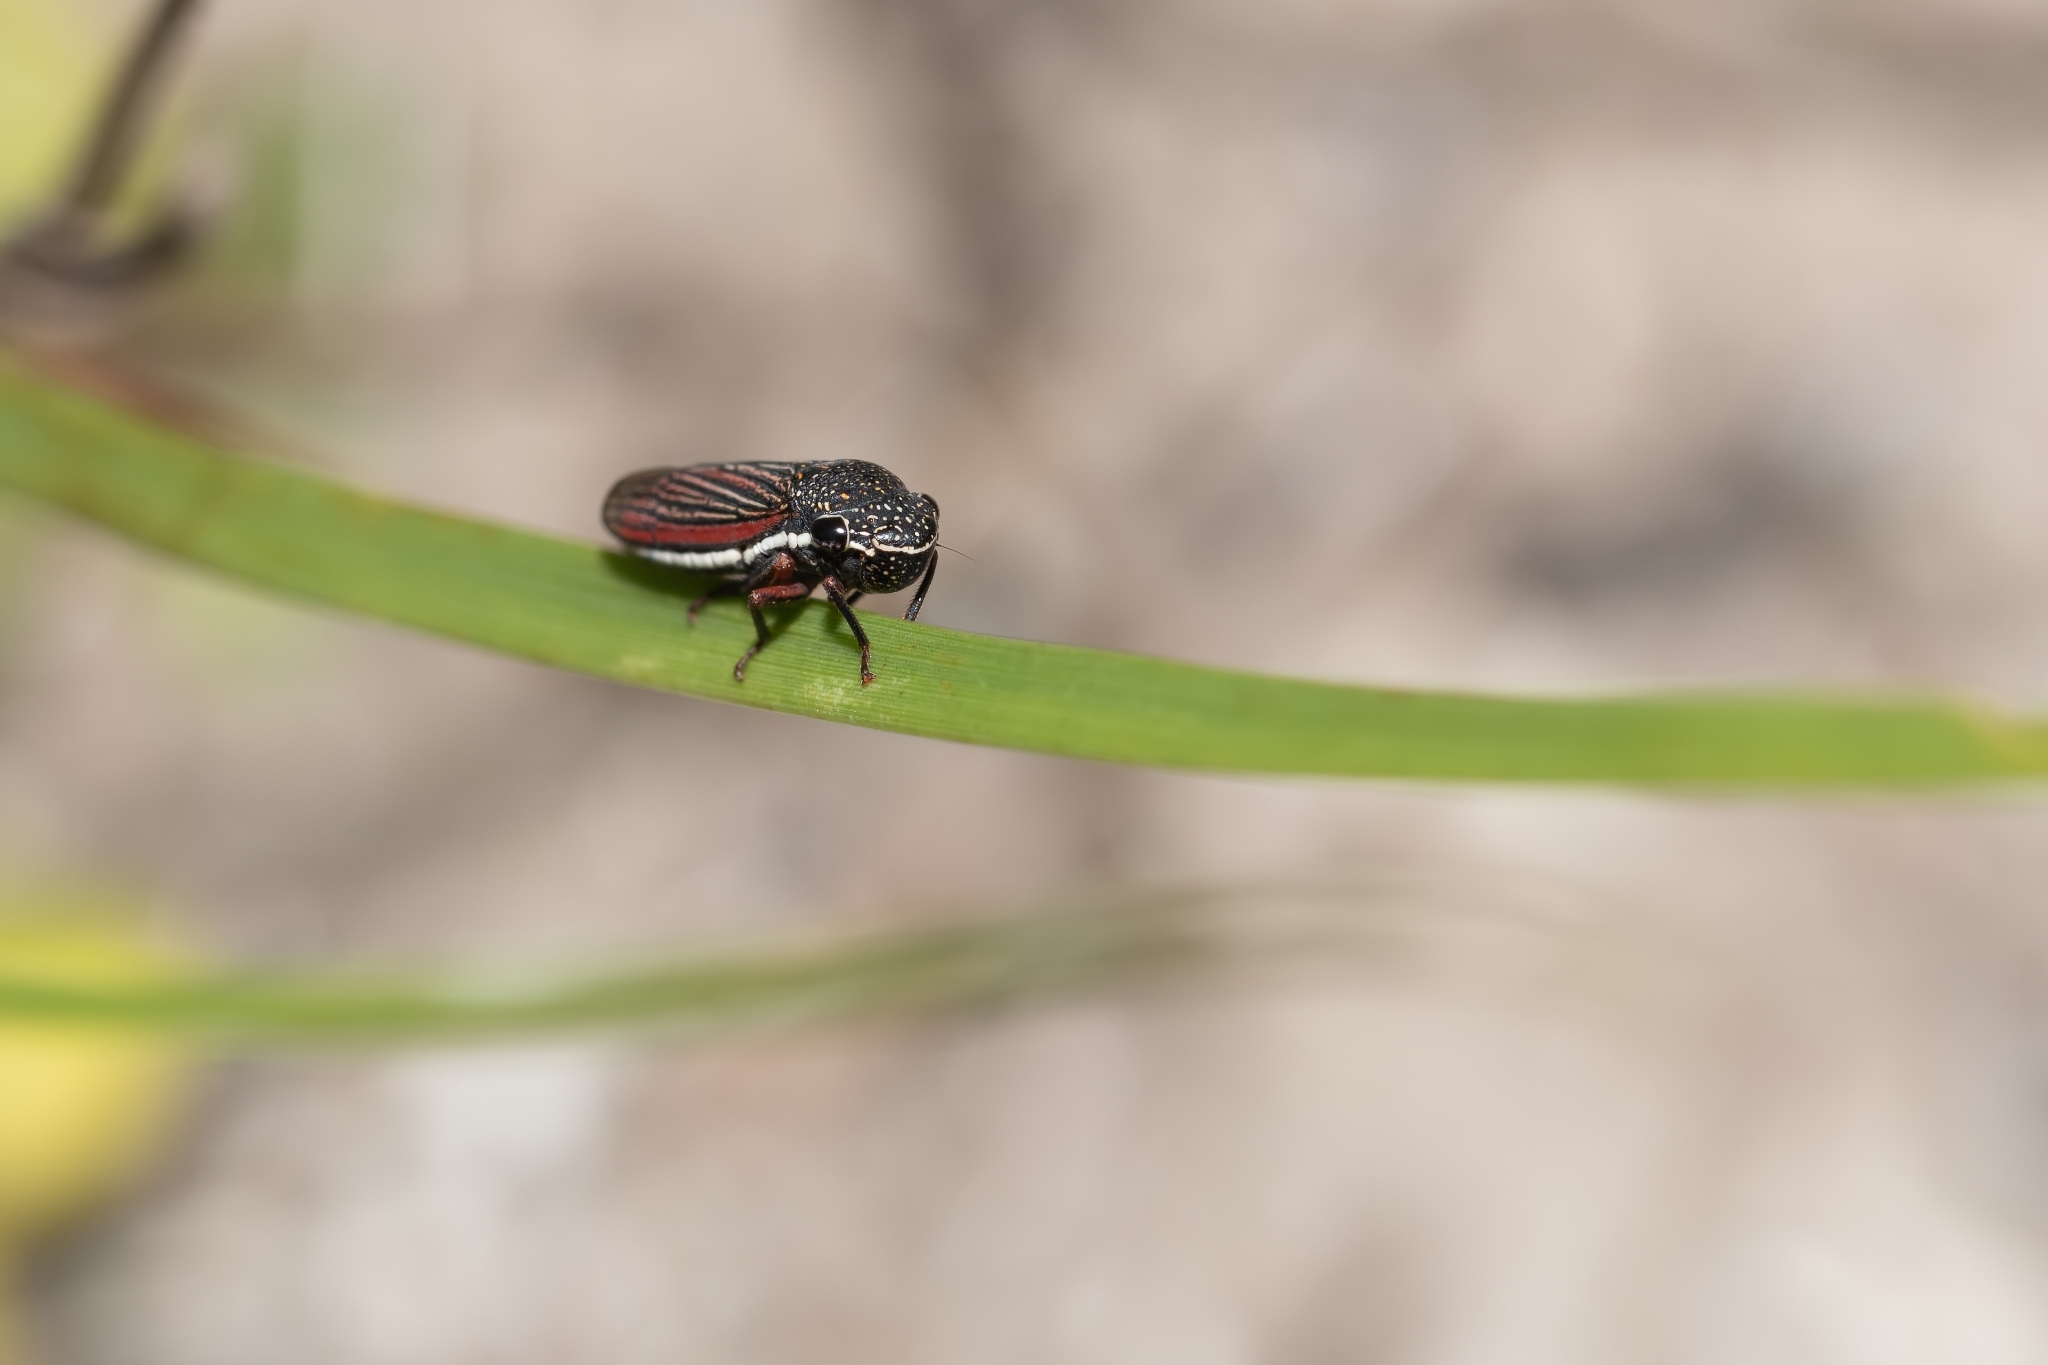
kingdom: Animalia
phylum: Arthropoda
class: Insecta
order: Hemiptera
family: Cicadellidae
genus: Cuerna
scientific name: Cuerna costalis
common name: Lateral-lined sharpshooter
